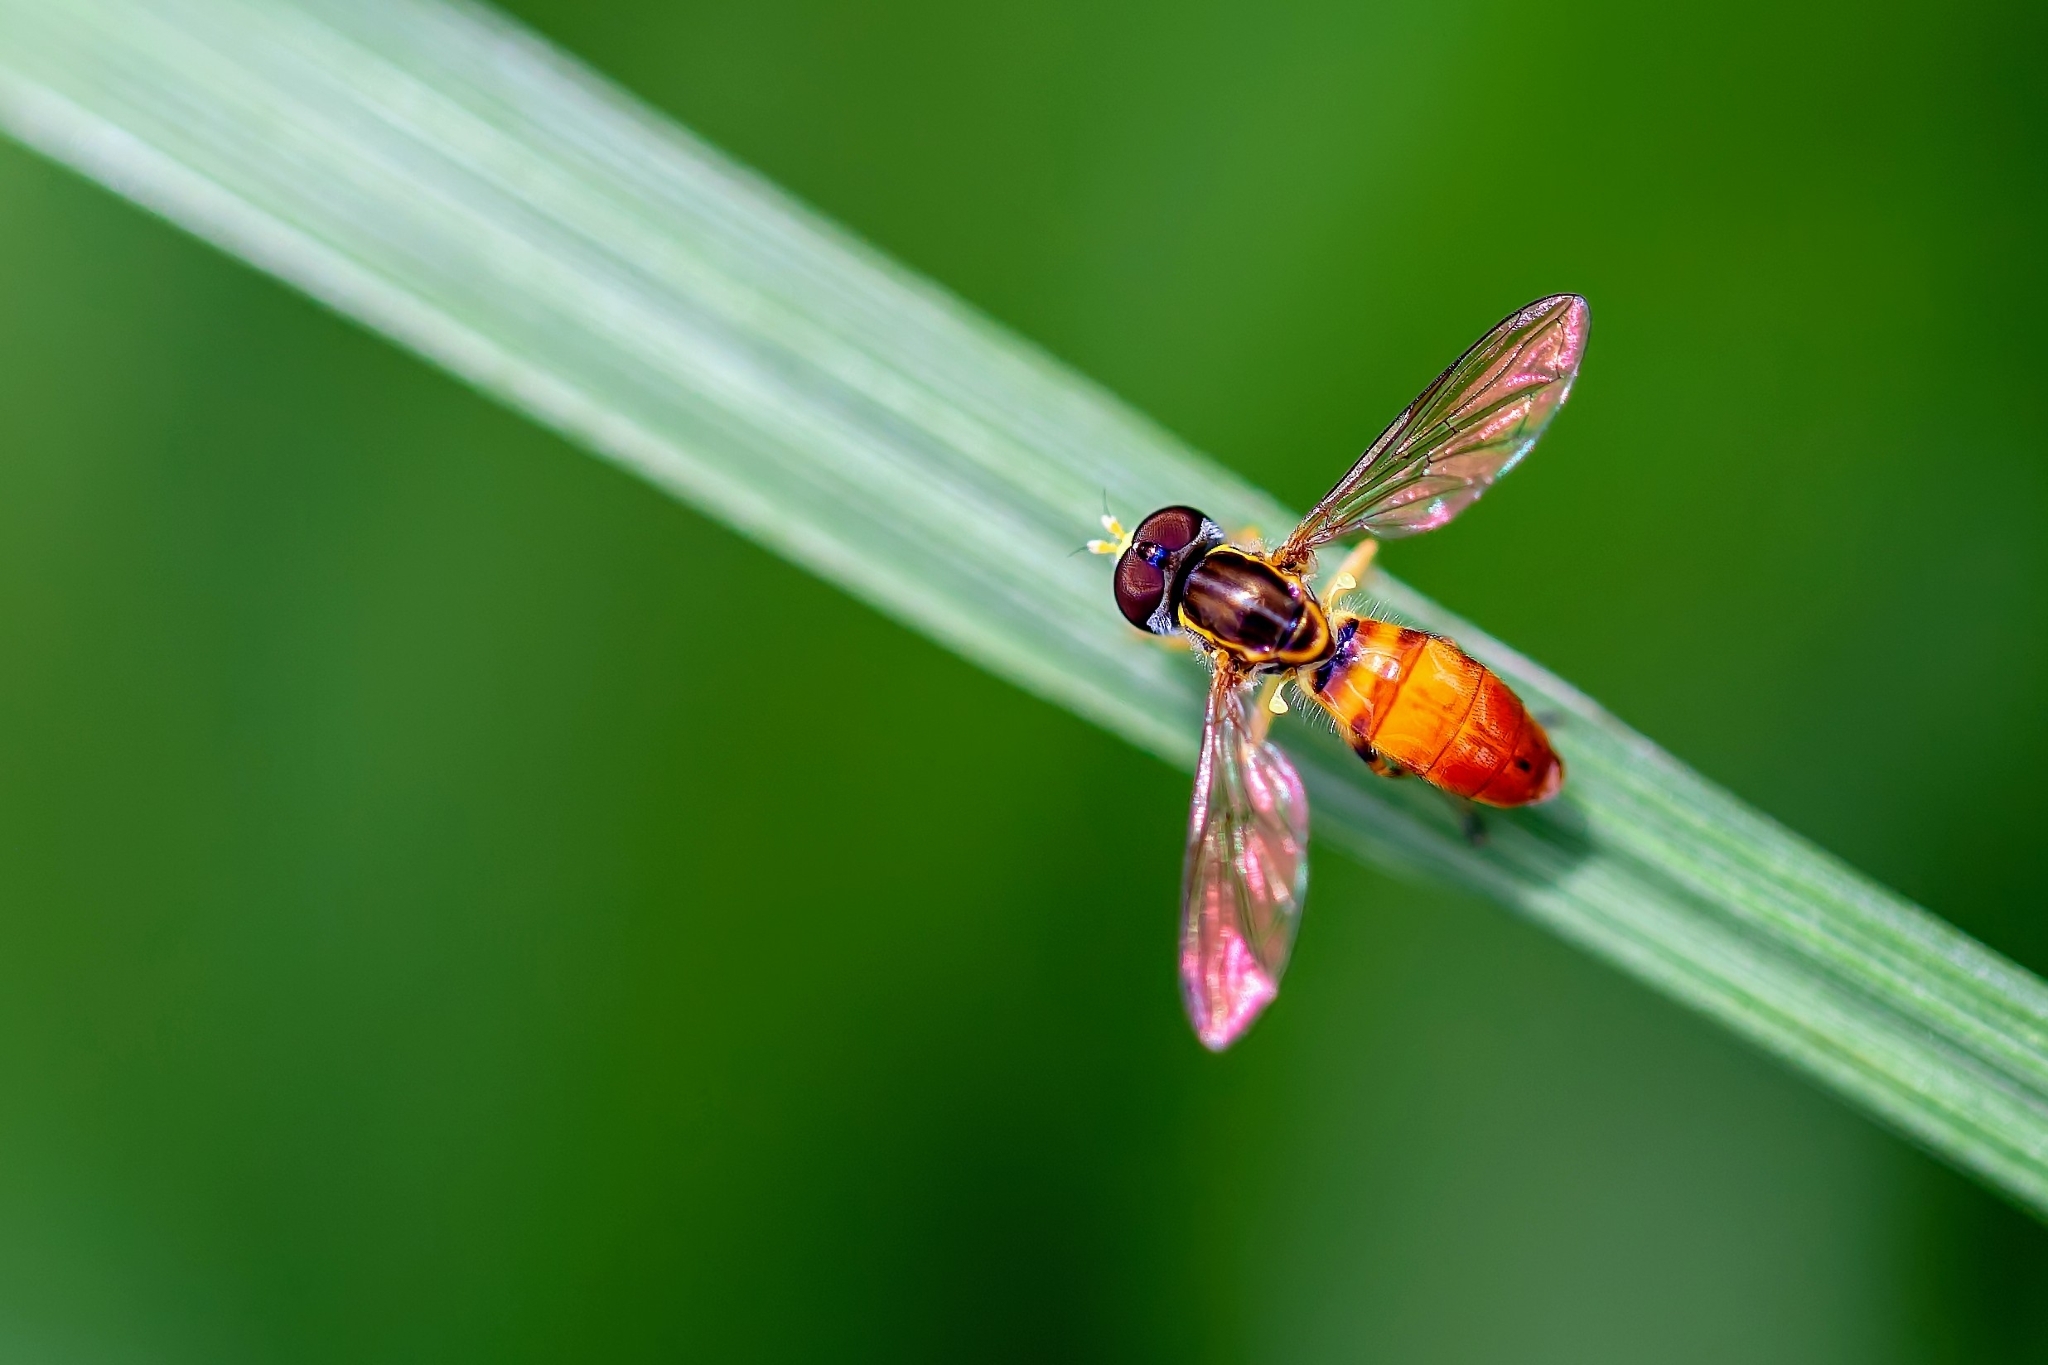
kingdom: Animalia
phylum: Arthropoda
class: Insecta
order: Diptera
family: Syrphidae
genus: Toxomerus
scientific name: Toxomerus floralis
